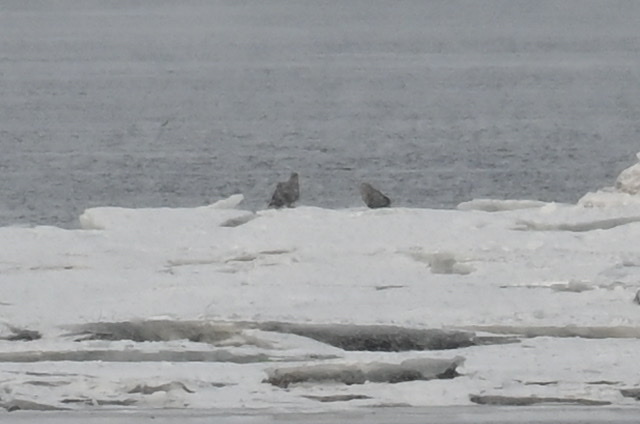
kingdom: Animalia
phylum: Chordata
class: Aves
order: Accipitriformes
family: Accipitridae
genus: Haliaeetus
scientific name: Haliaeetus albicilla
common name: White-tailed eagle
